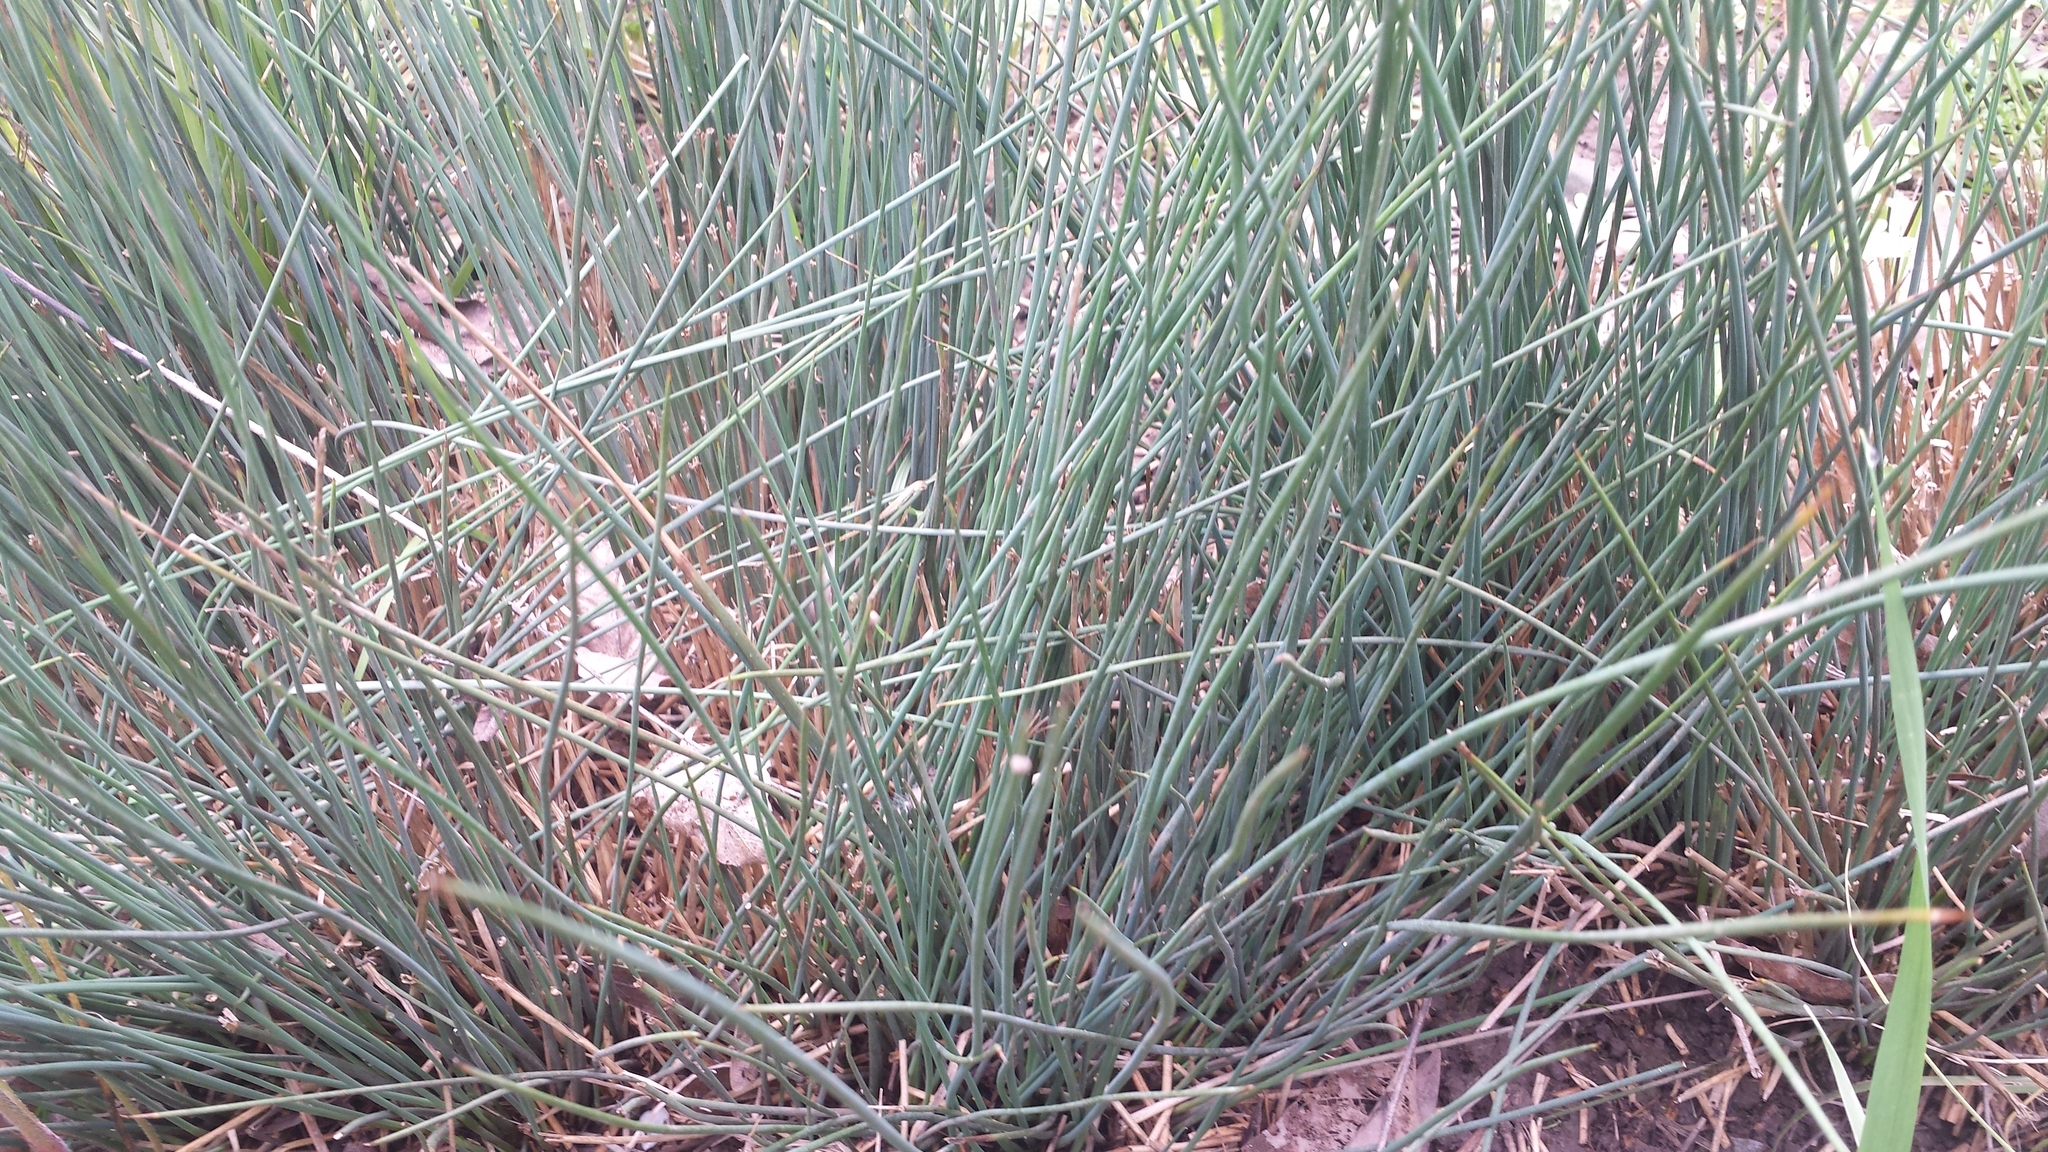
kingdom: Plantae
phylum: Tracheophyta
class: Liliopsida
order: Poales
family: Juncaceae
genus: Juncus
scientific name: Juncus patens
